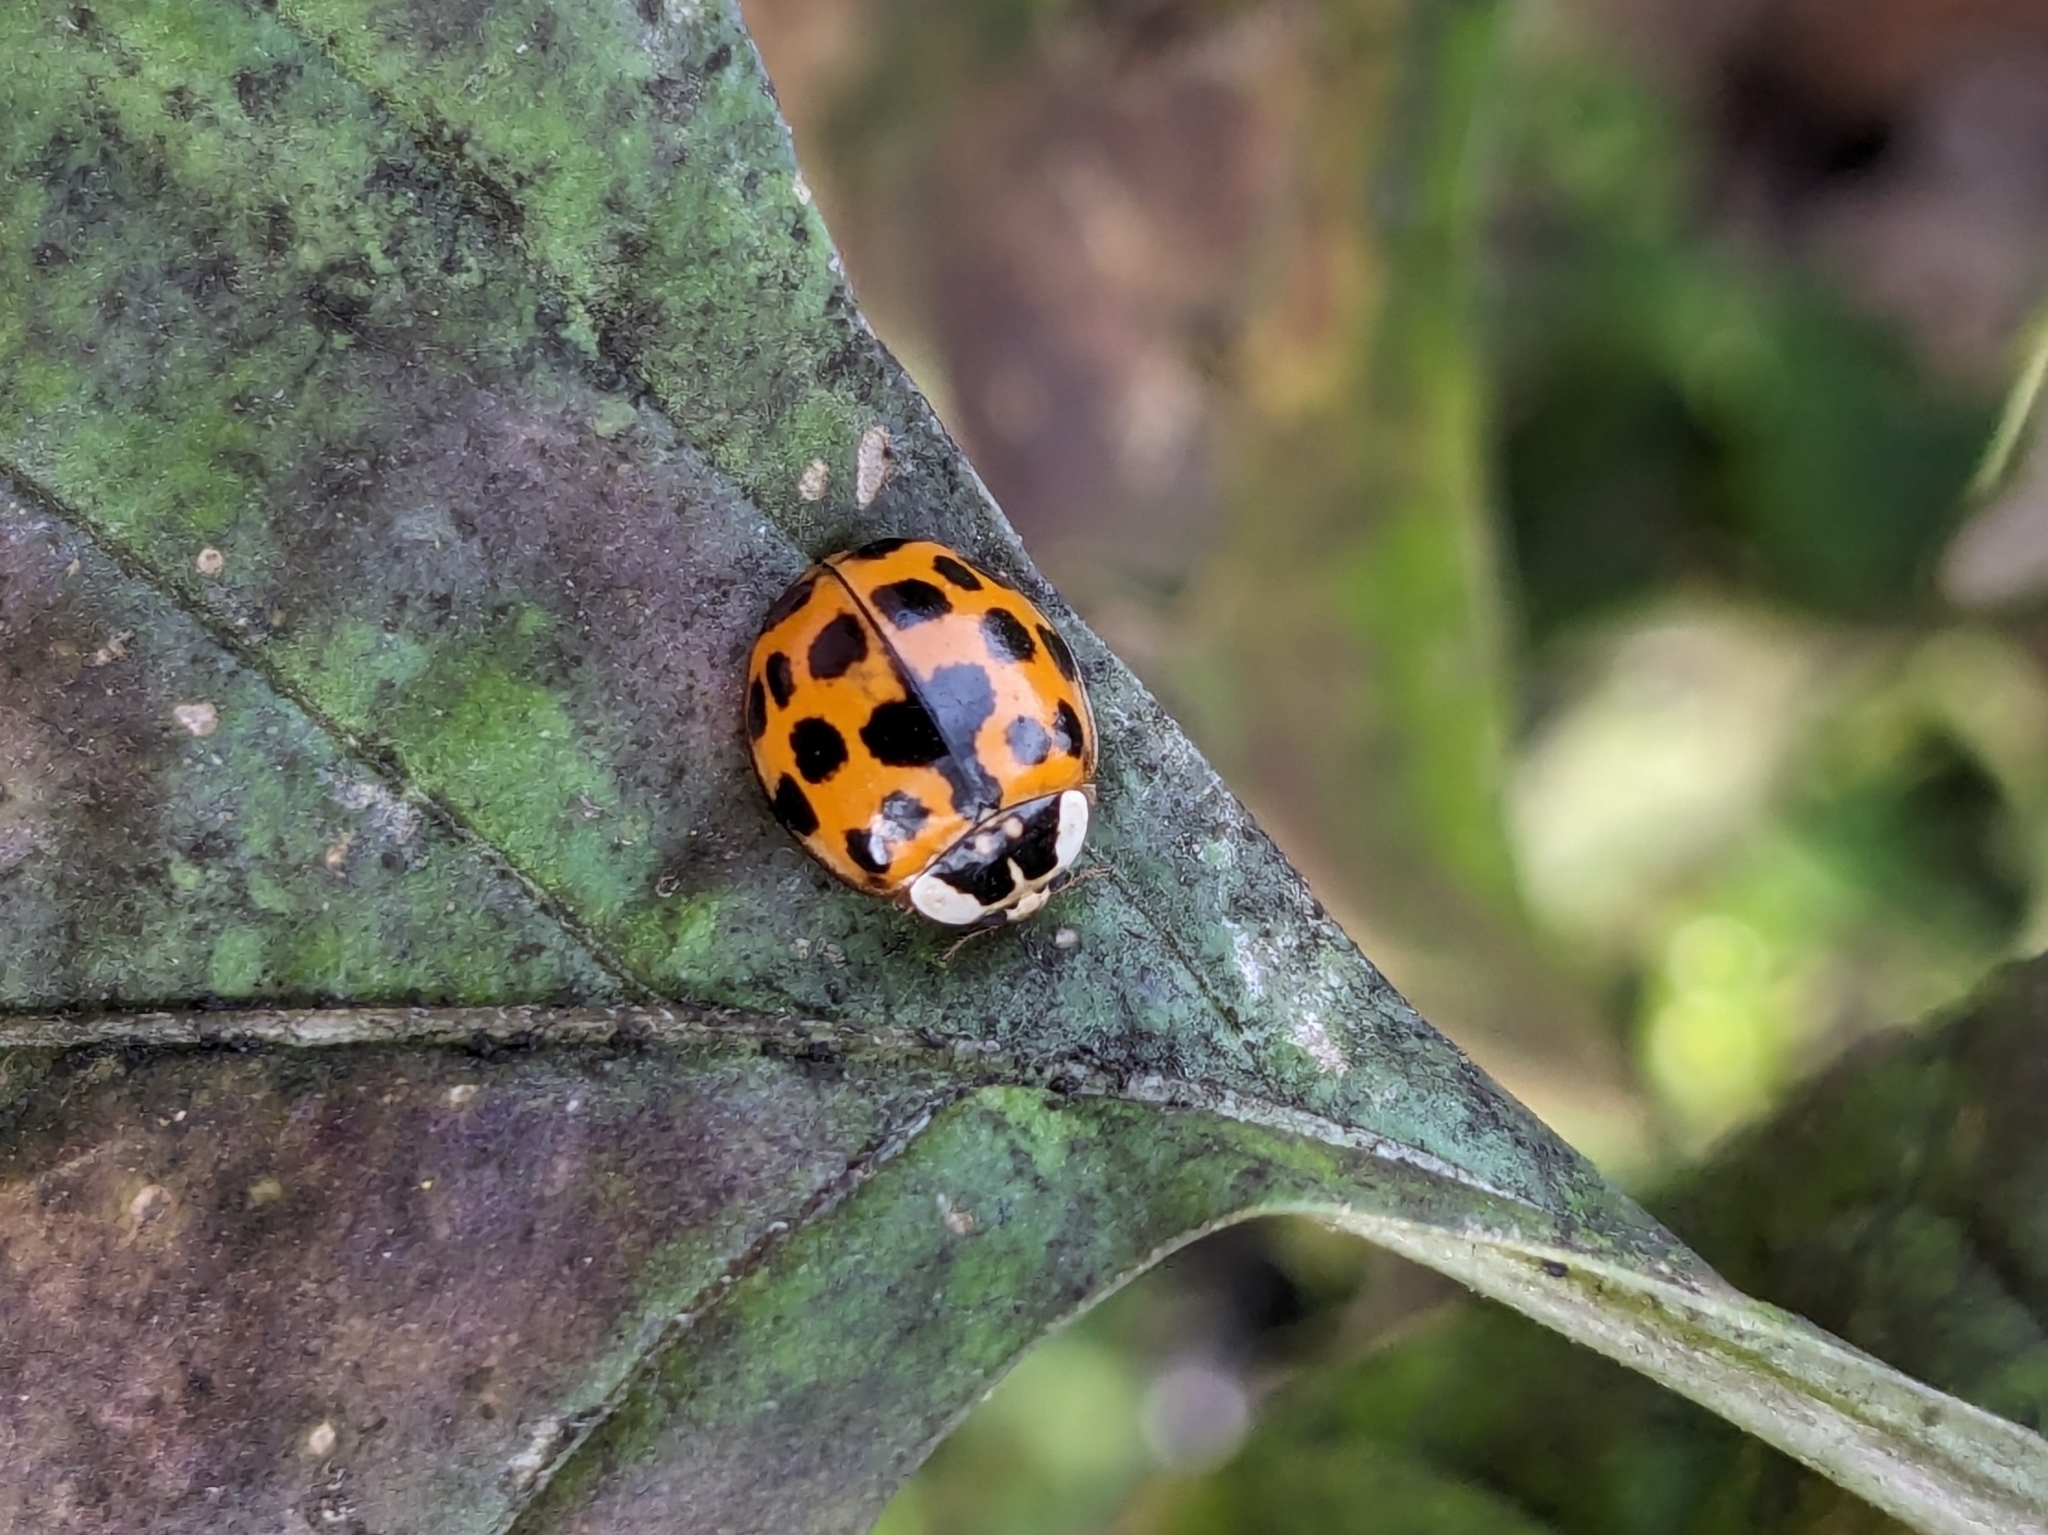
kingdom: Animalia
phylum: Arthropoda
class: Insecta
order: Coleoptera
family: Coccinellidae
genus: Harmonia
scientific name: Harmonia axyridis
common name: Harlequin ladybird
